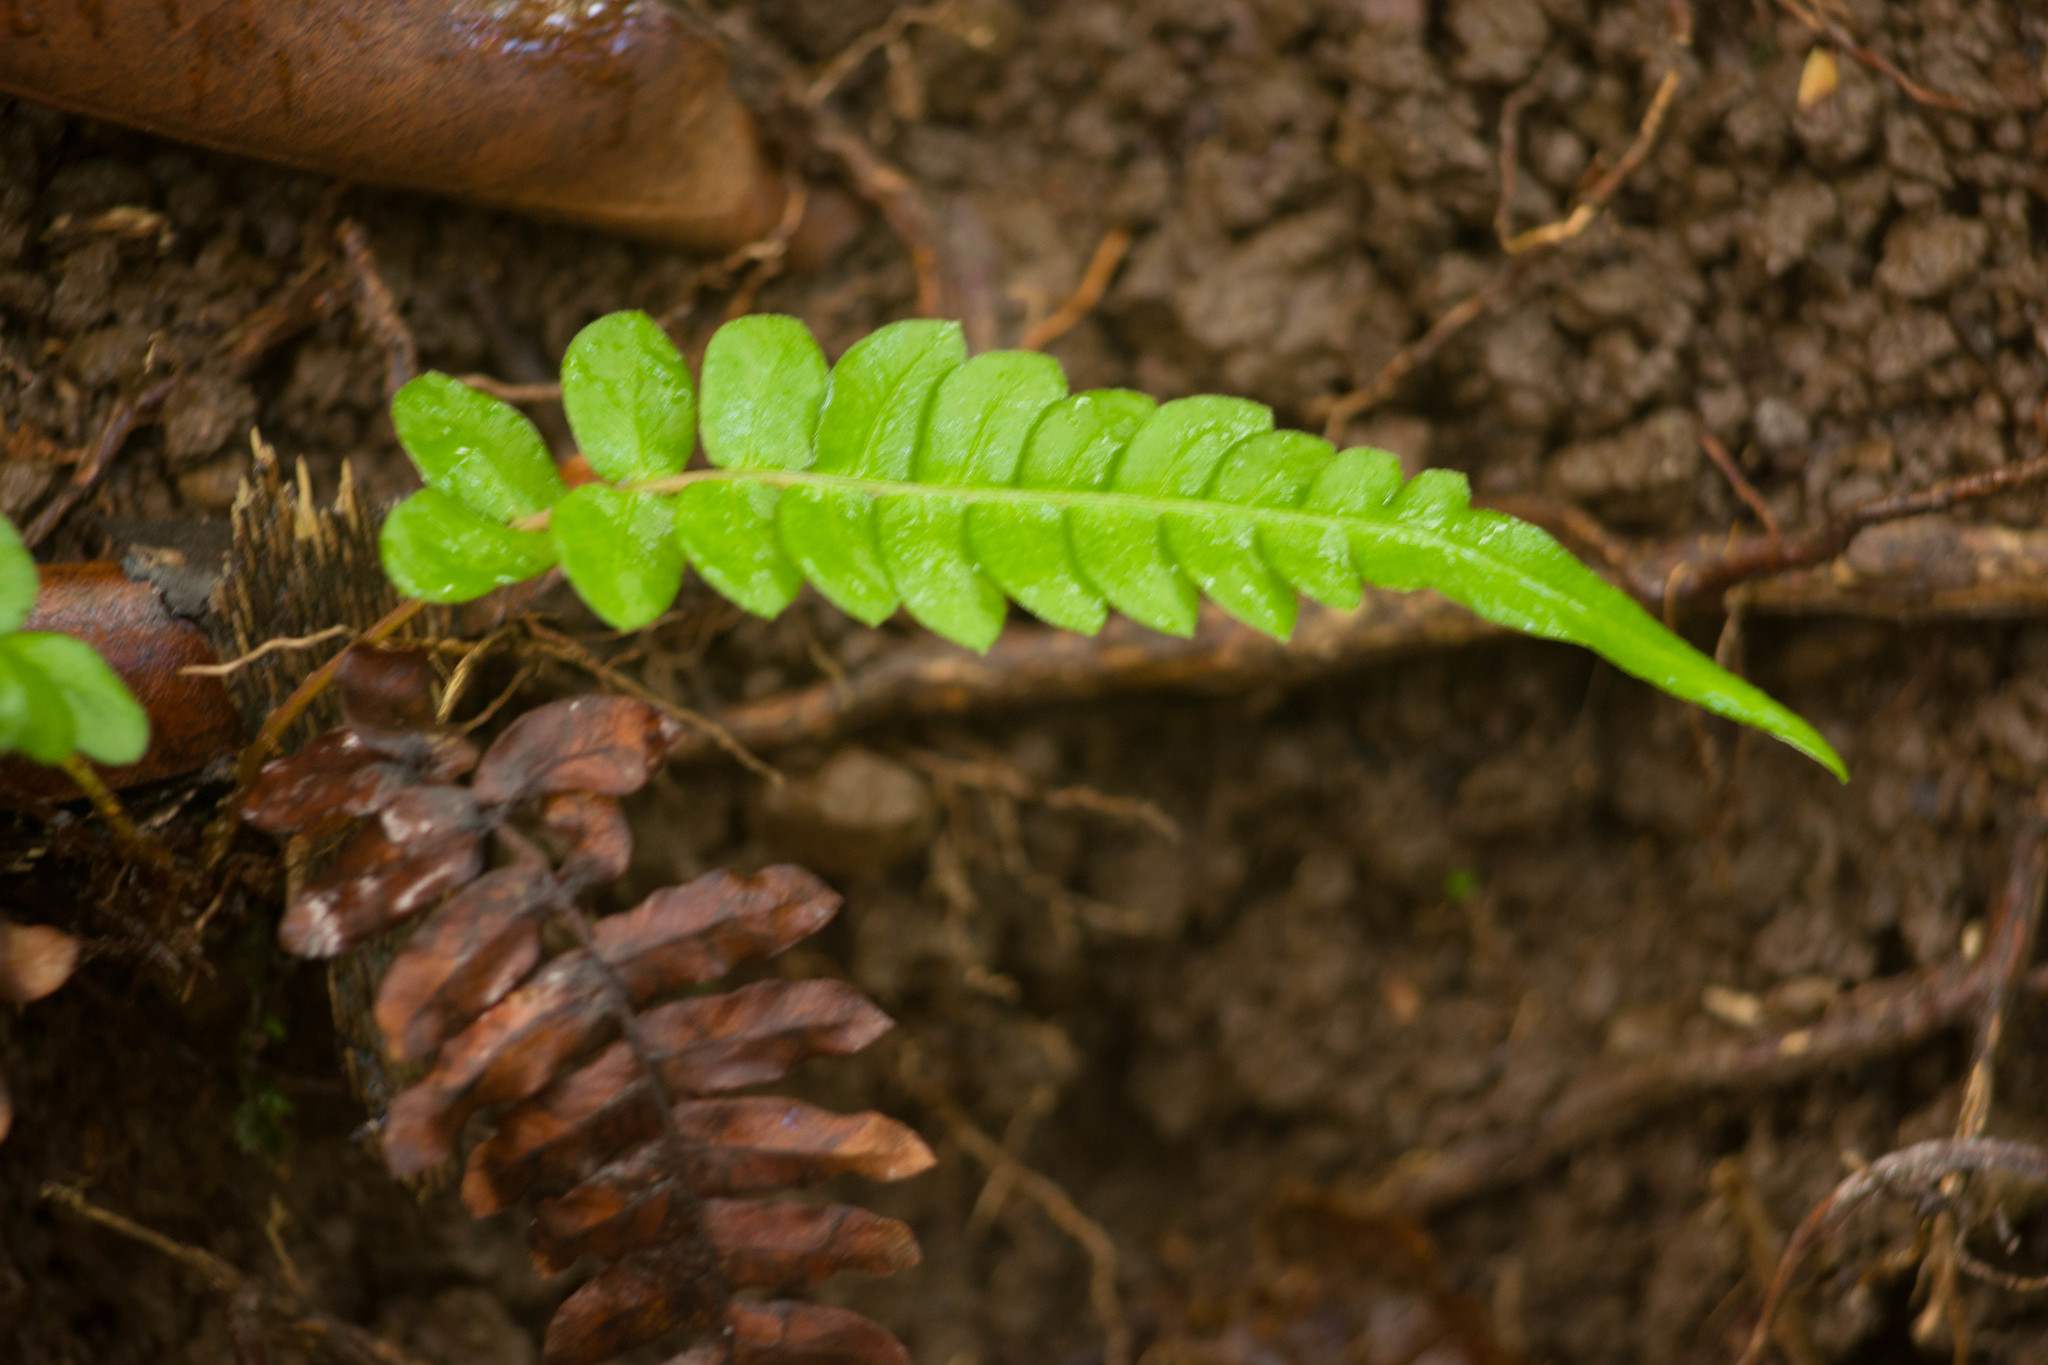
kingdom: Plantae
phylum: Tracheophyta
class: Polypodiopsida
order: Polypodiales
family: Blechnaceae
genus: Blechnum
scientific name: Blechnum appendiculatum
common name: Palm fern
